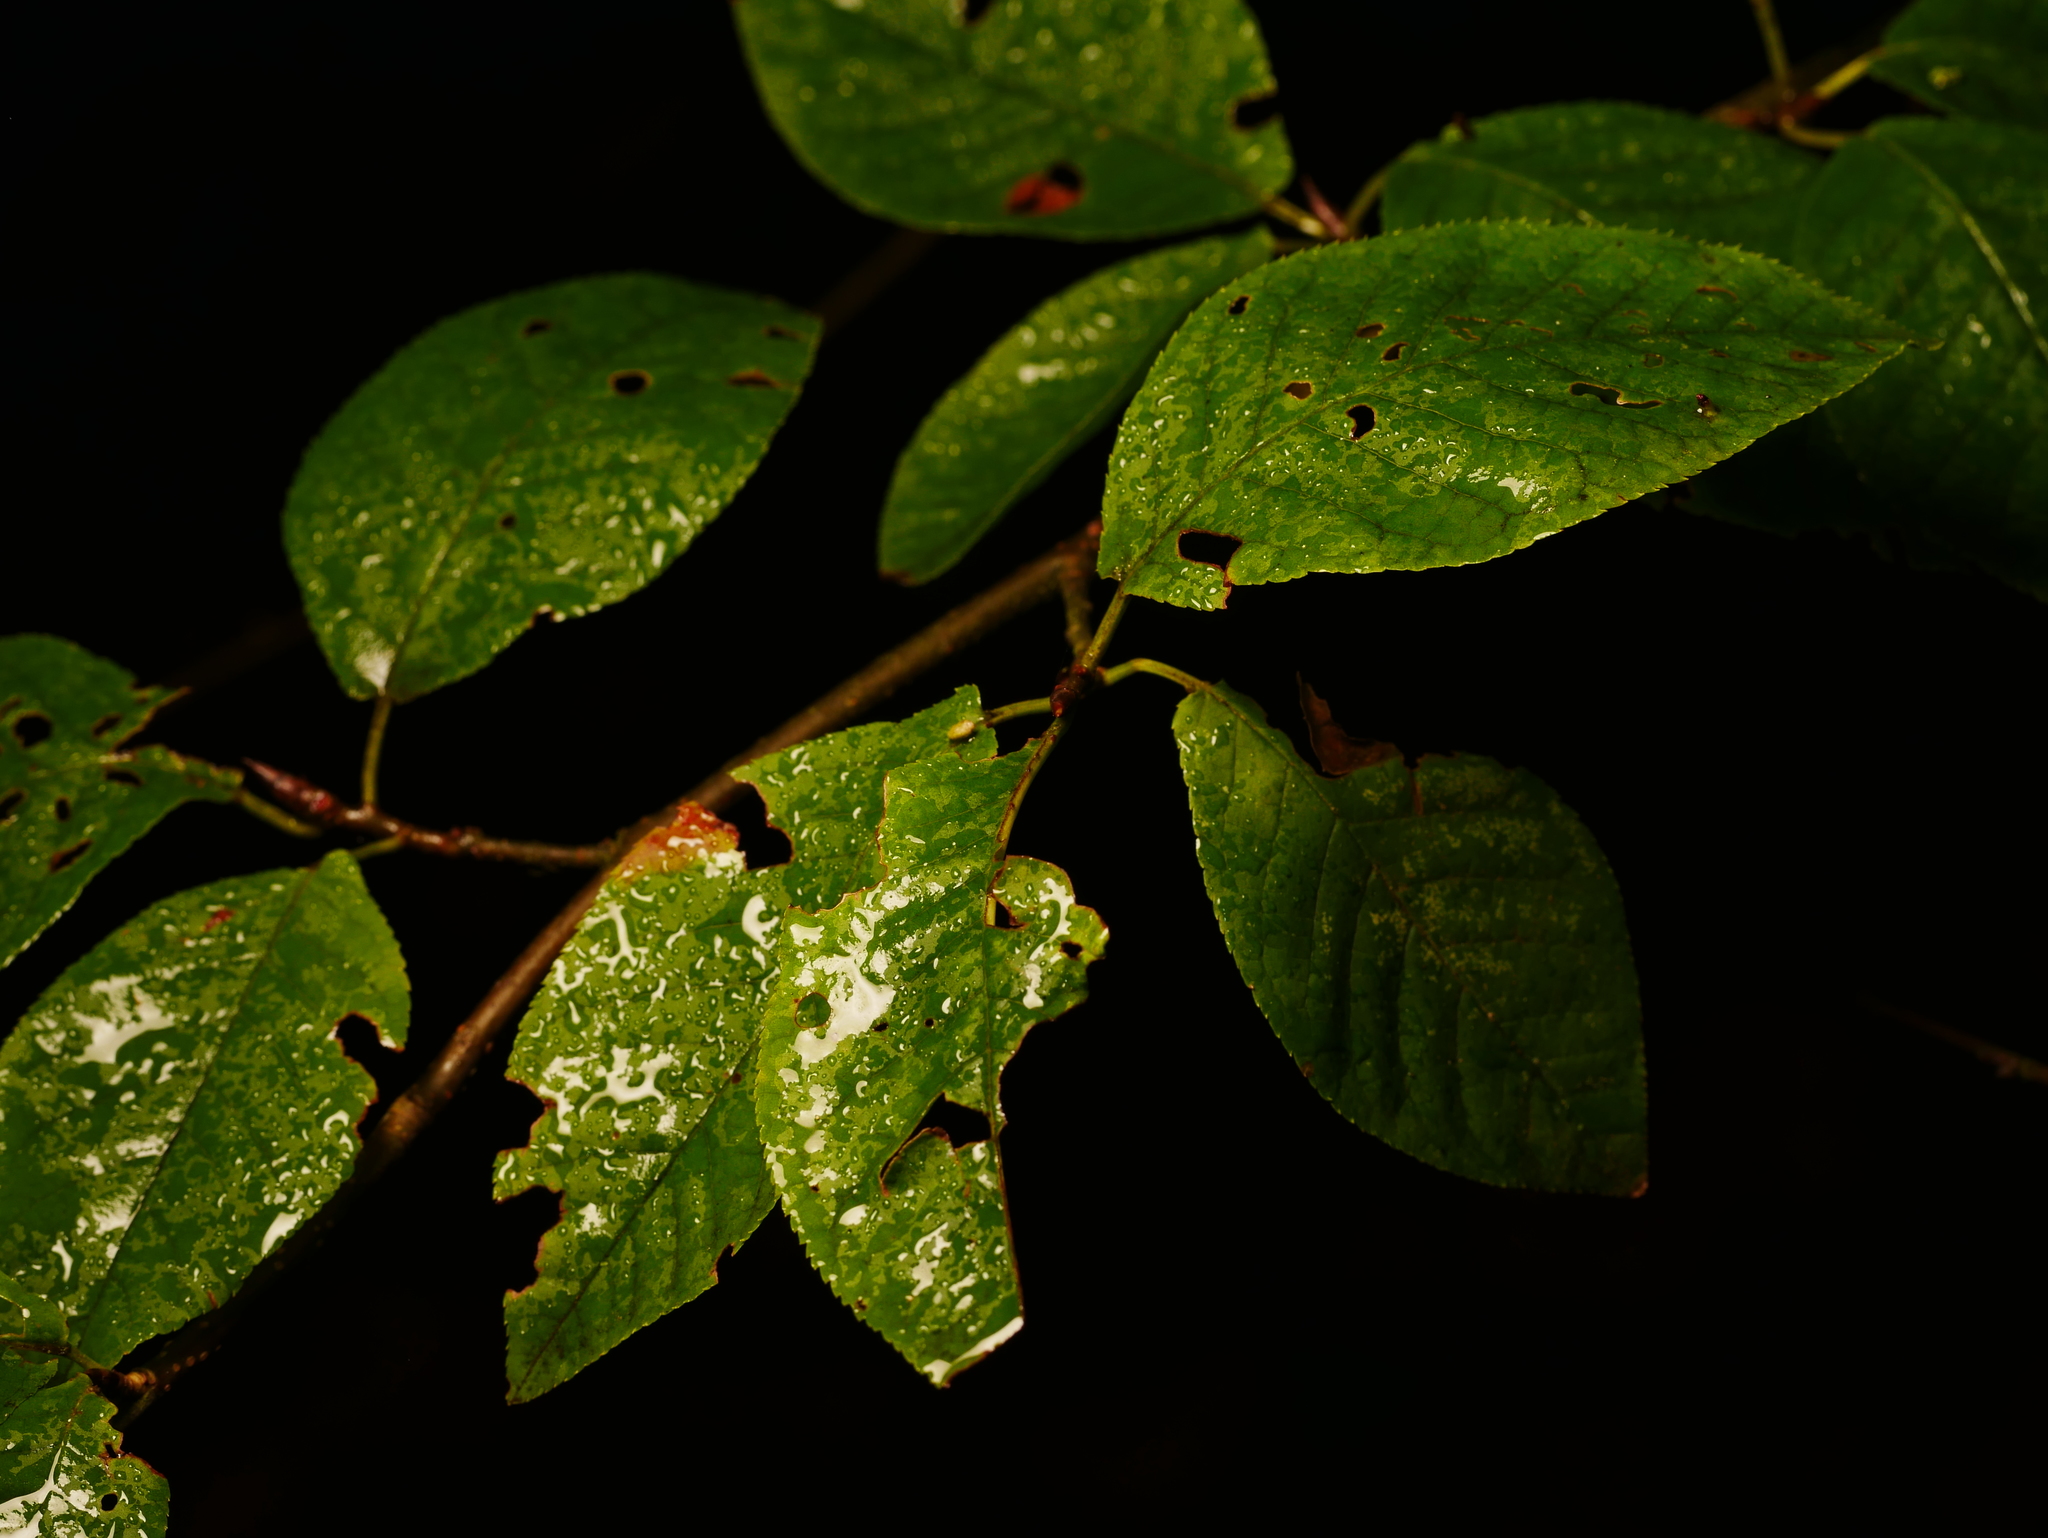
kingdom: Plantae
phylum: Tracheophyta
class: Magnoliopsida
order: Rosales
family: Rosaceae
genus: Prunus
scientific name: Prunus padus
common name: Bird cherry
